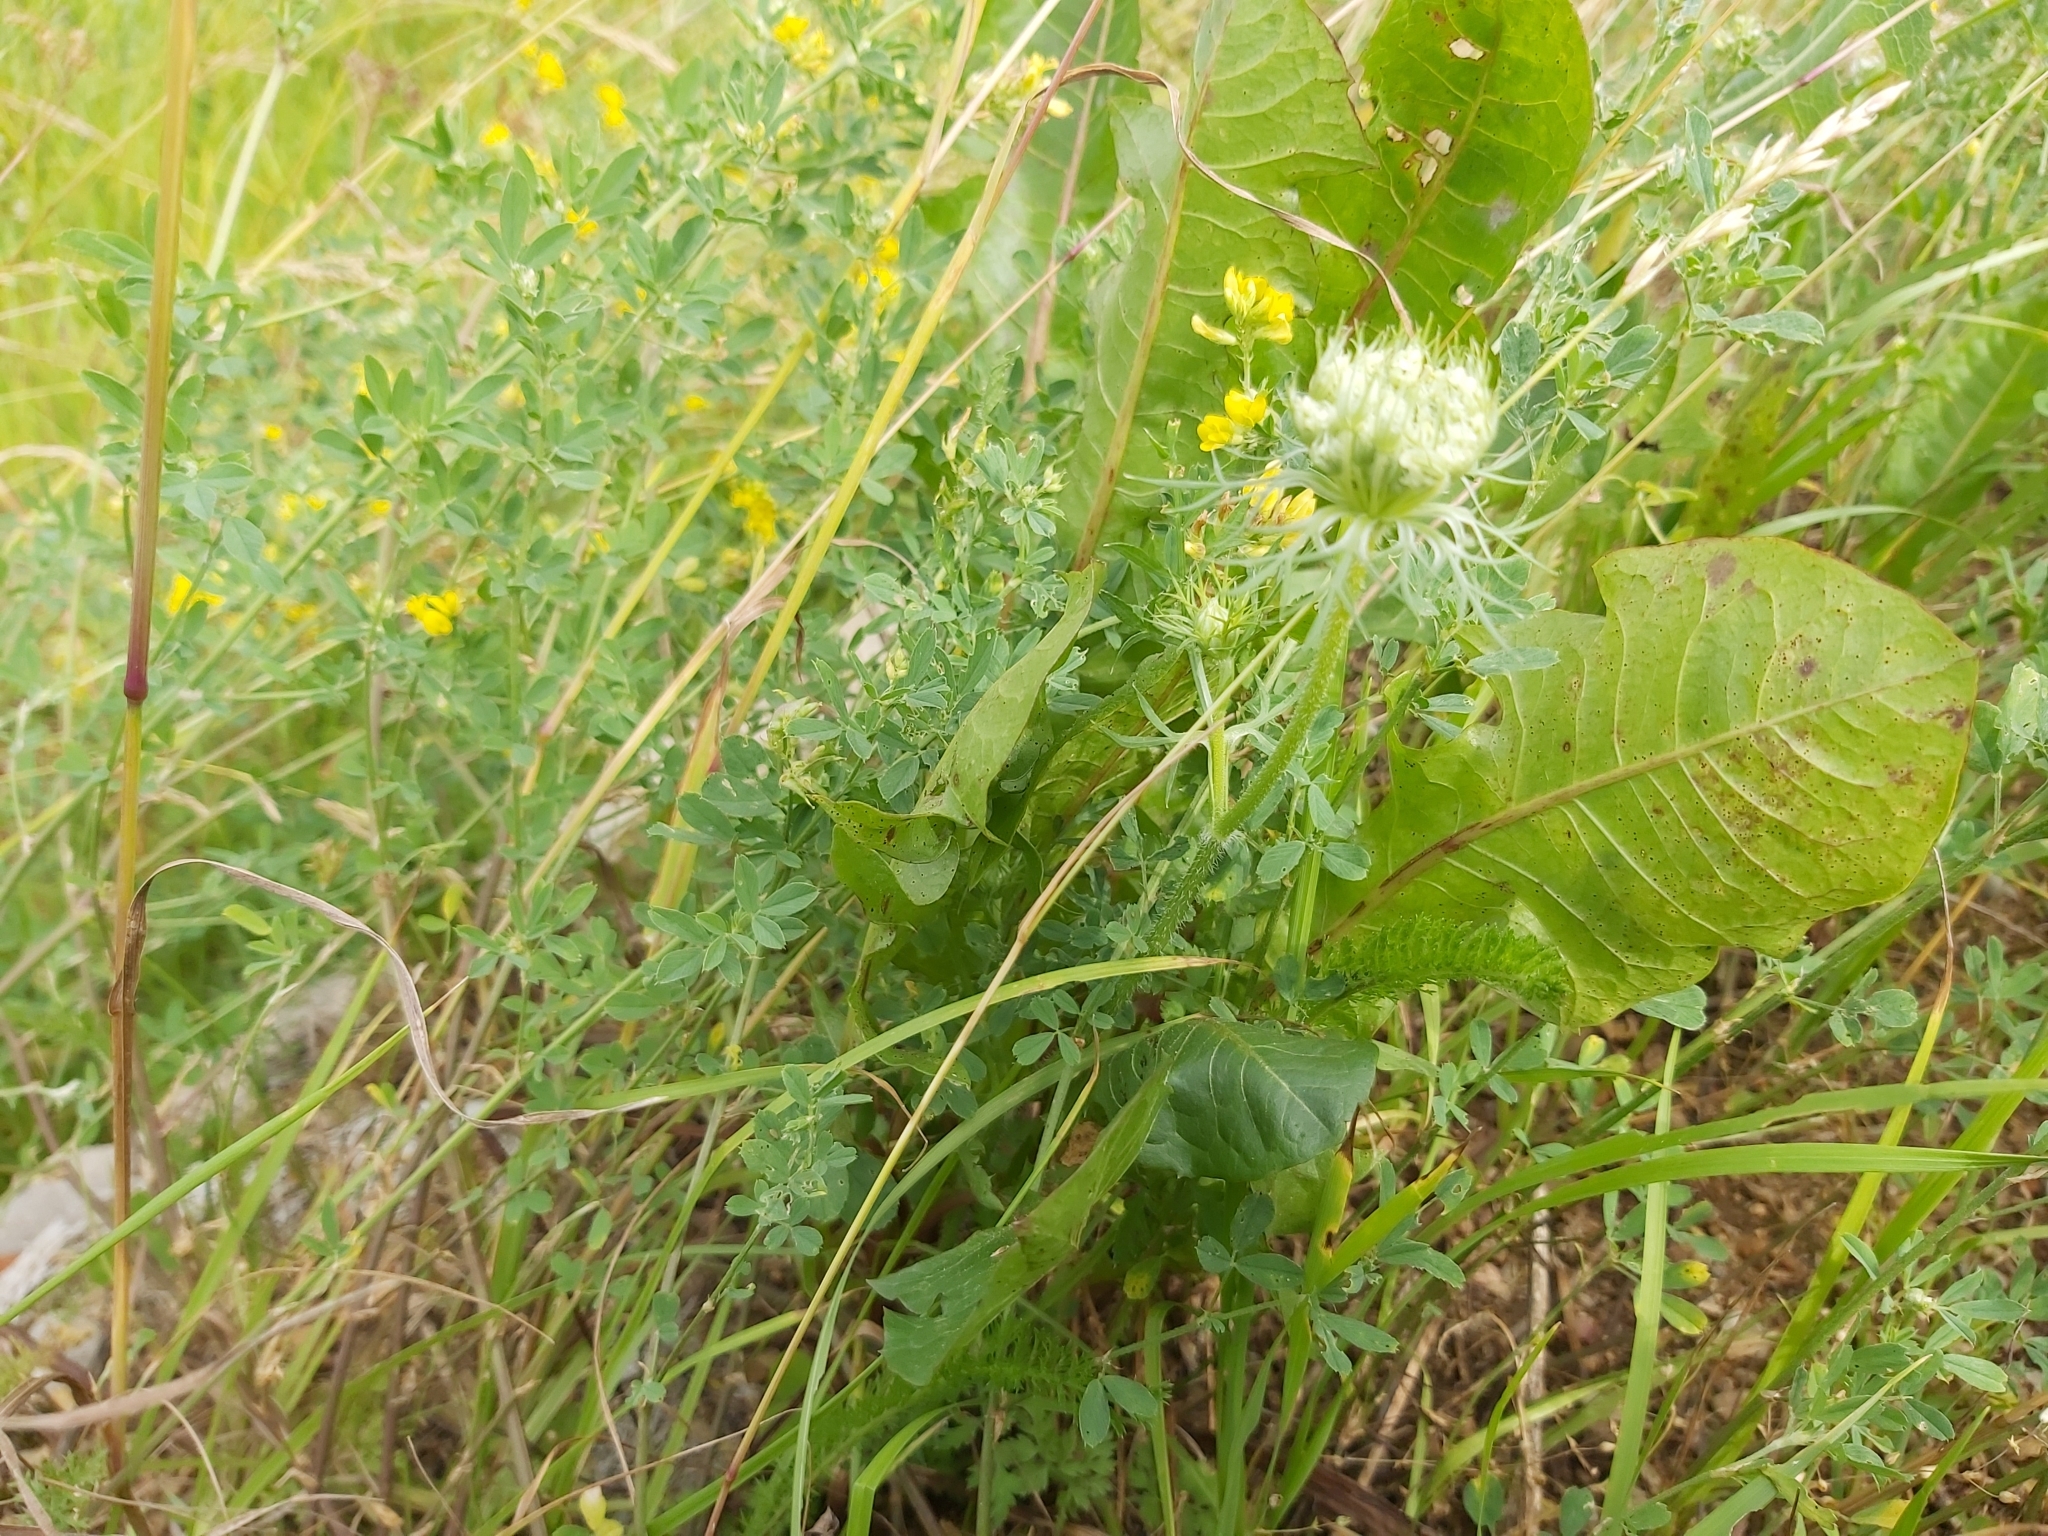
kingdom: Plantae
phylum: Tracheophyta
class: Magnoliopsida
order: Apiales
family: Apiaceae
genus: Daucus
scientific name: Daucus carota
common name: Wild carrot
